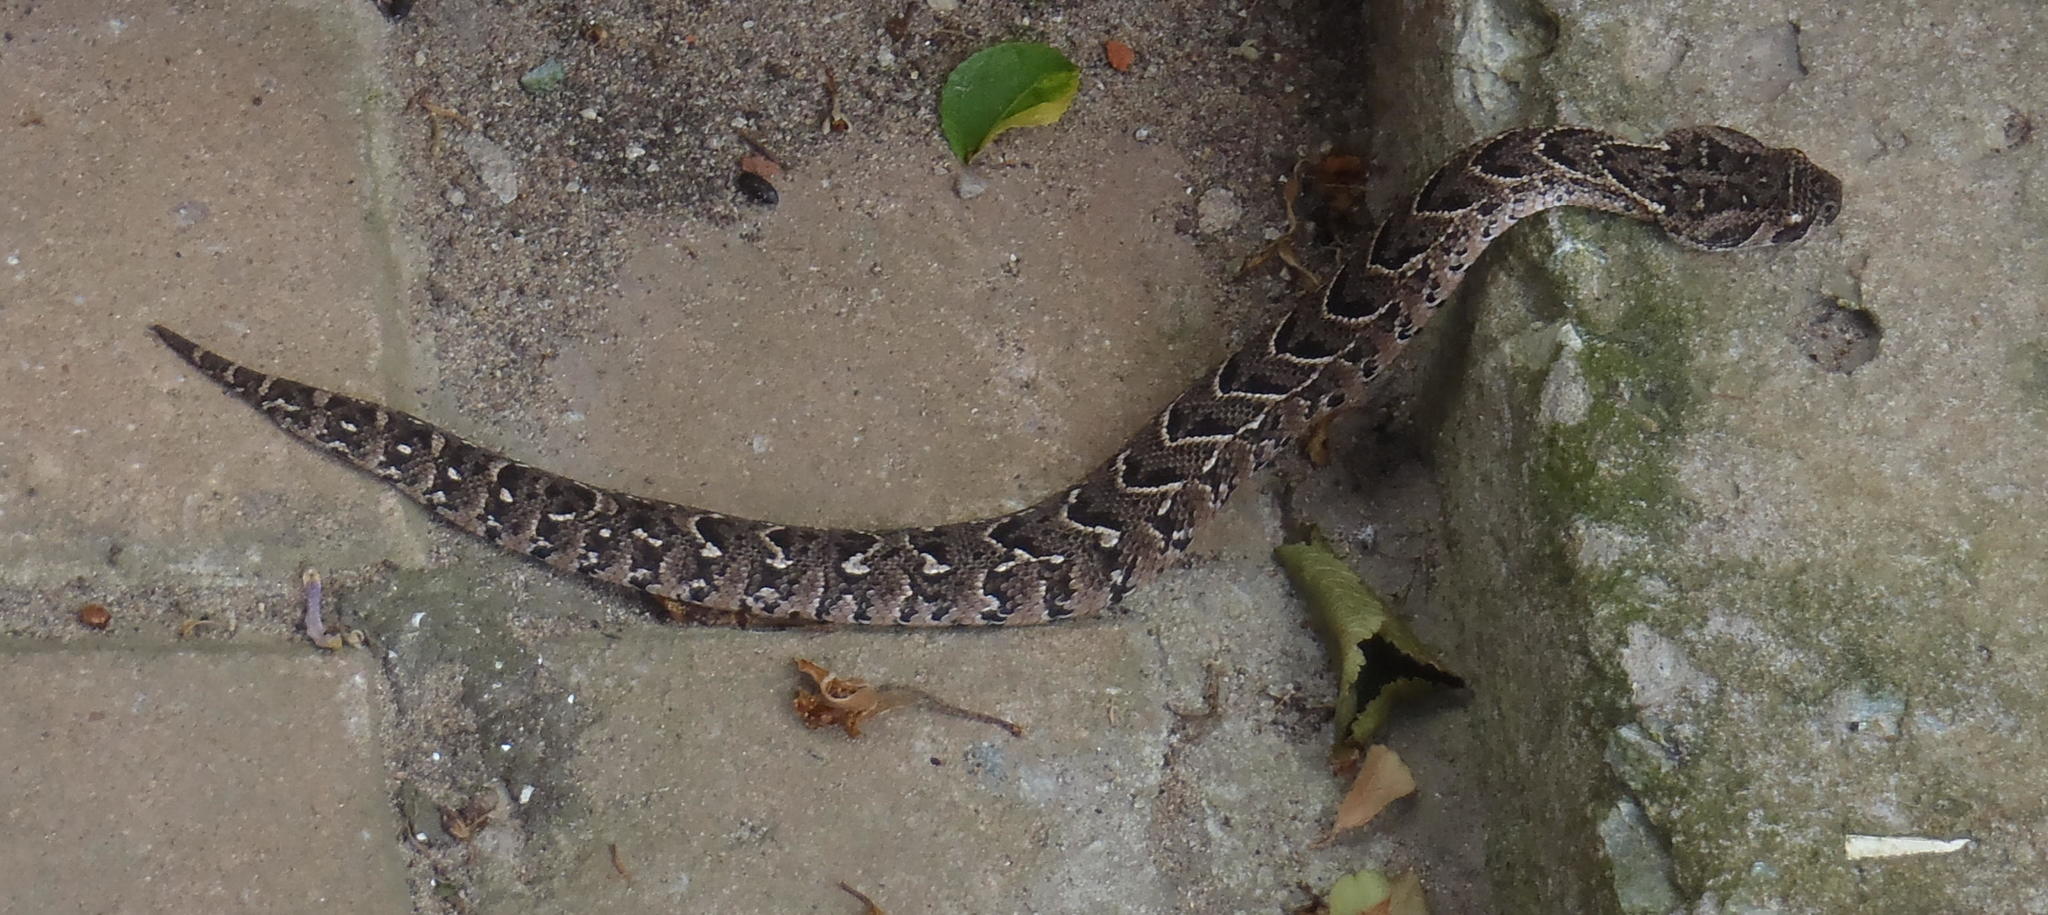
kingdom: Animalia
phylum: Chordata
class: Squamata
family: Viperidae
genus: Bitis
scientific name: Bitis arietans
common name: Puff adder
